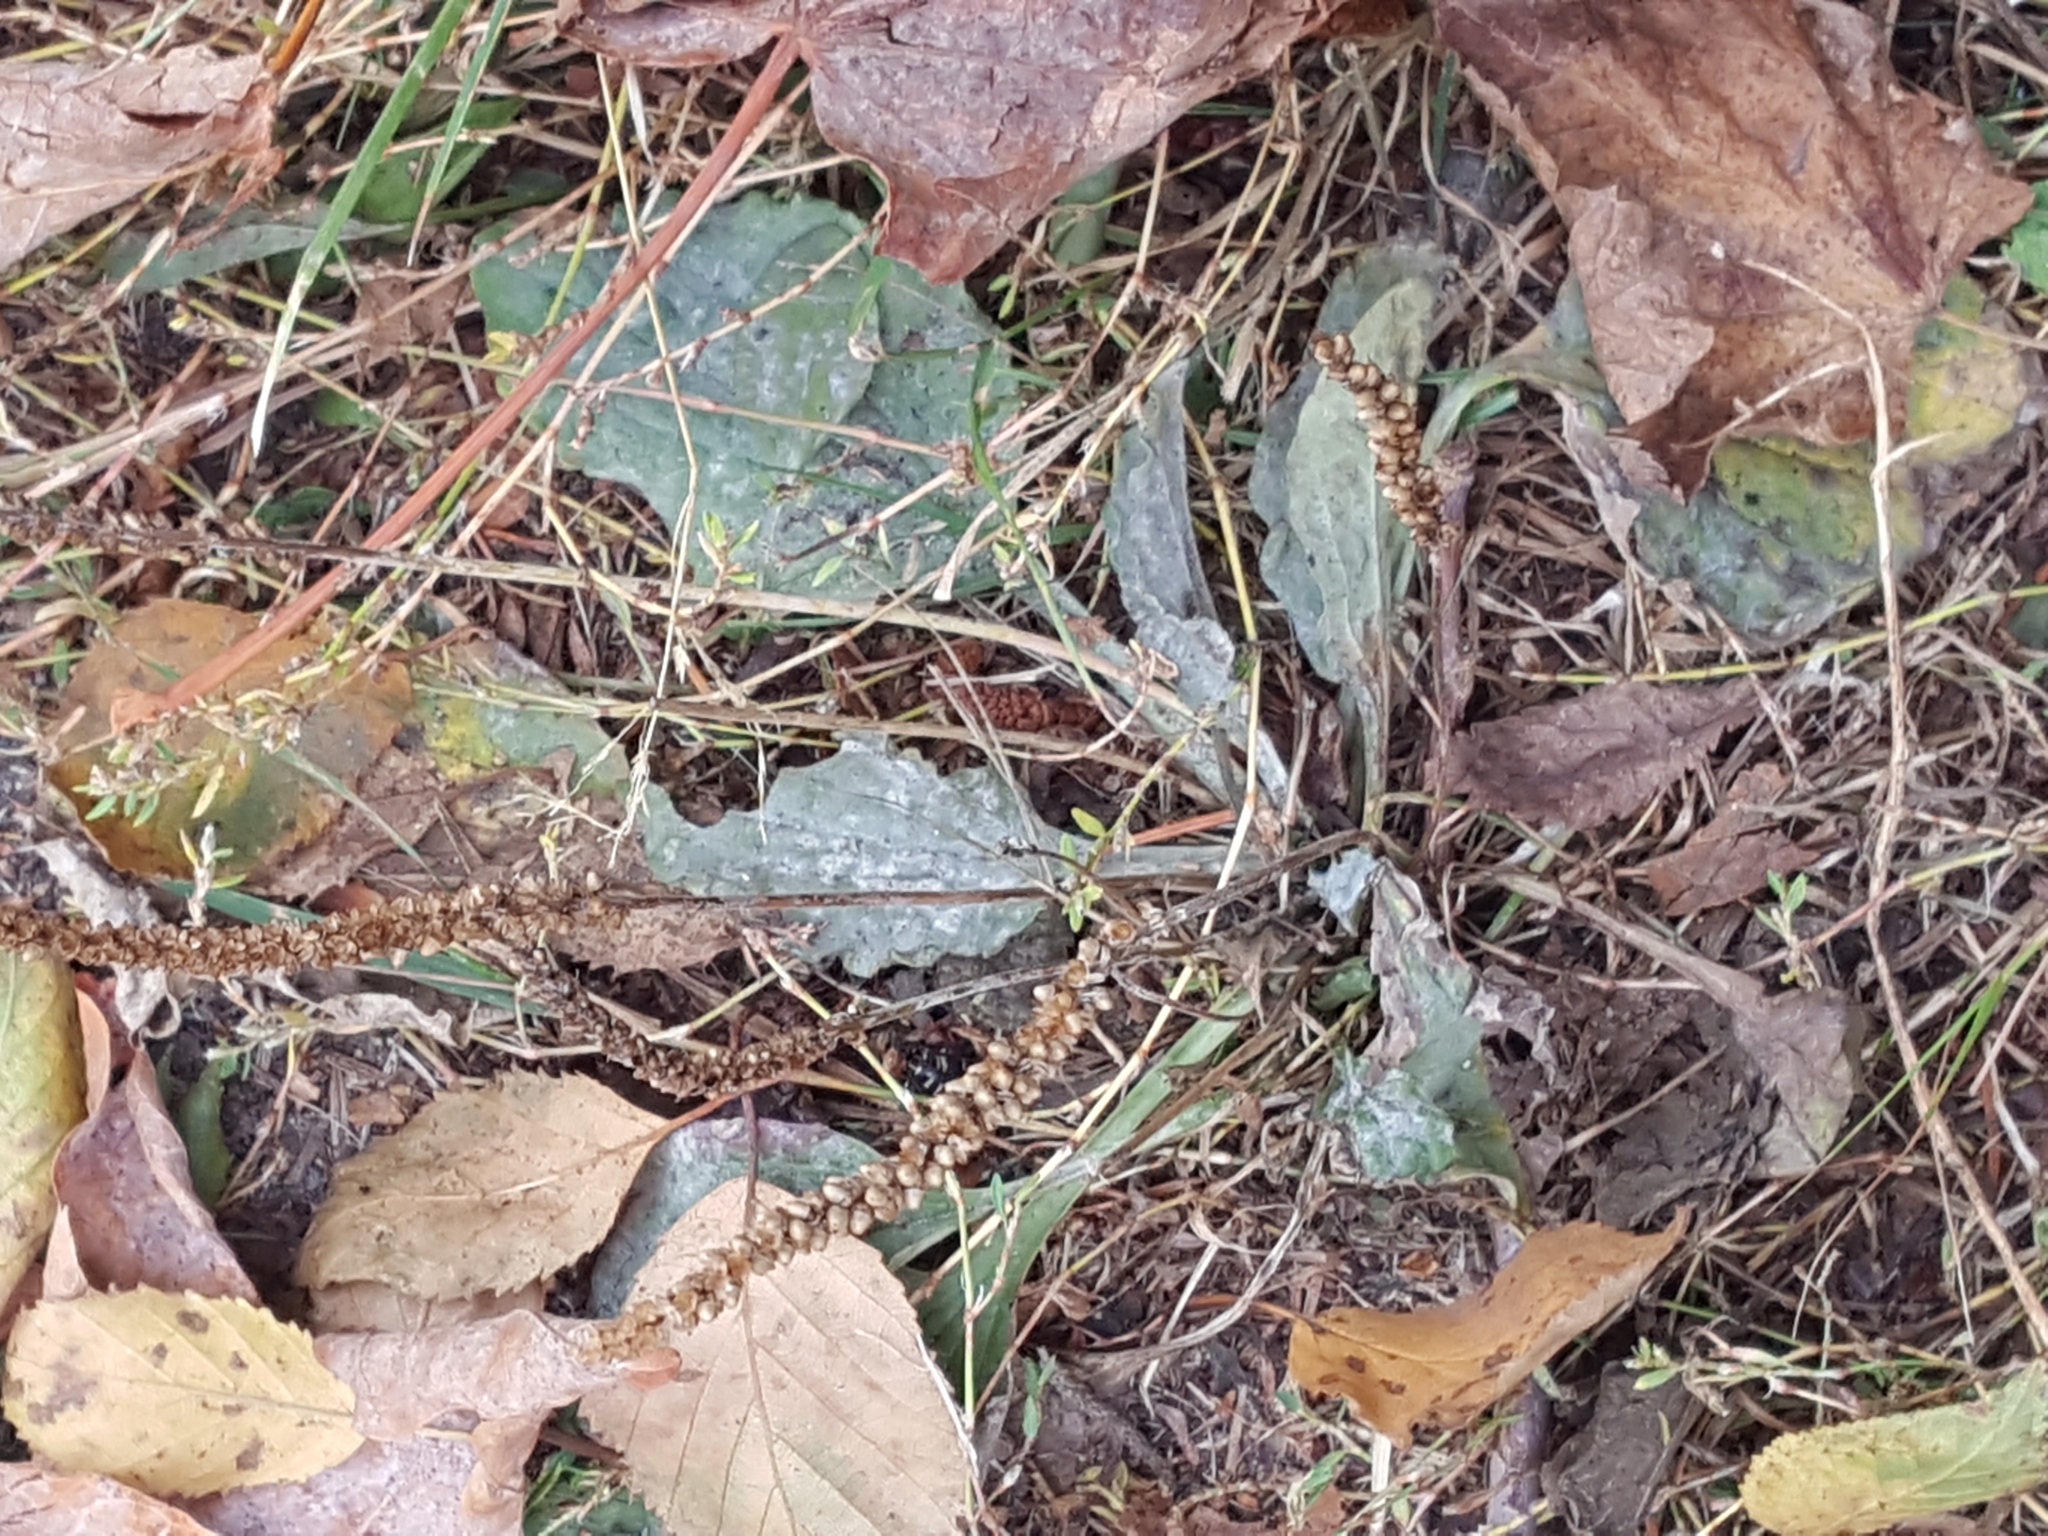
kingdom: Plantae
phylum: Tracheophyta
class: Magnoliopsida
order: Lamiales
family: Plantaginaceae
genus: Plantago
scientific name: Plantago major
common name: Common plantain
